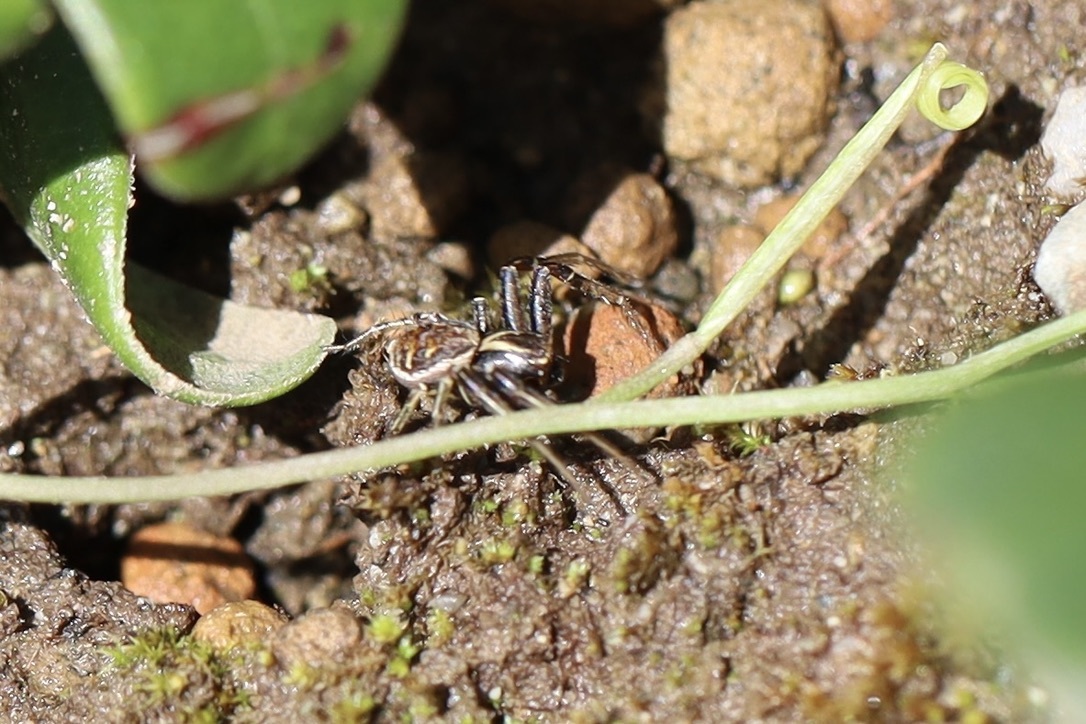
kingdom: Animalia
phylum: Arthropoda
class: Arachnida
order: Araneae
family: Thomisidae
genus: Xysticus
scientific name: Xysticus cristatus
